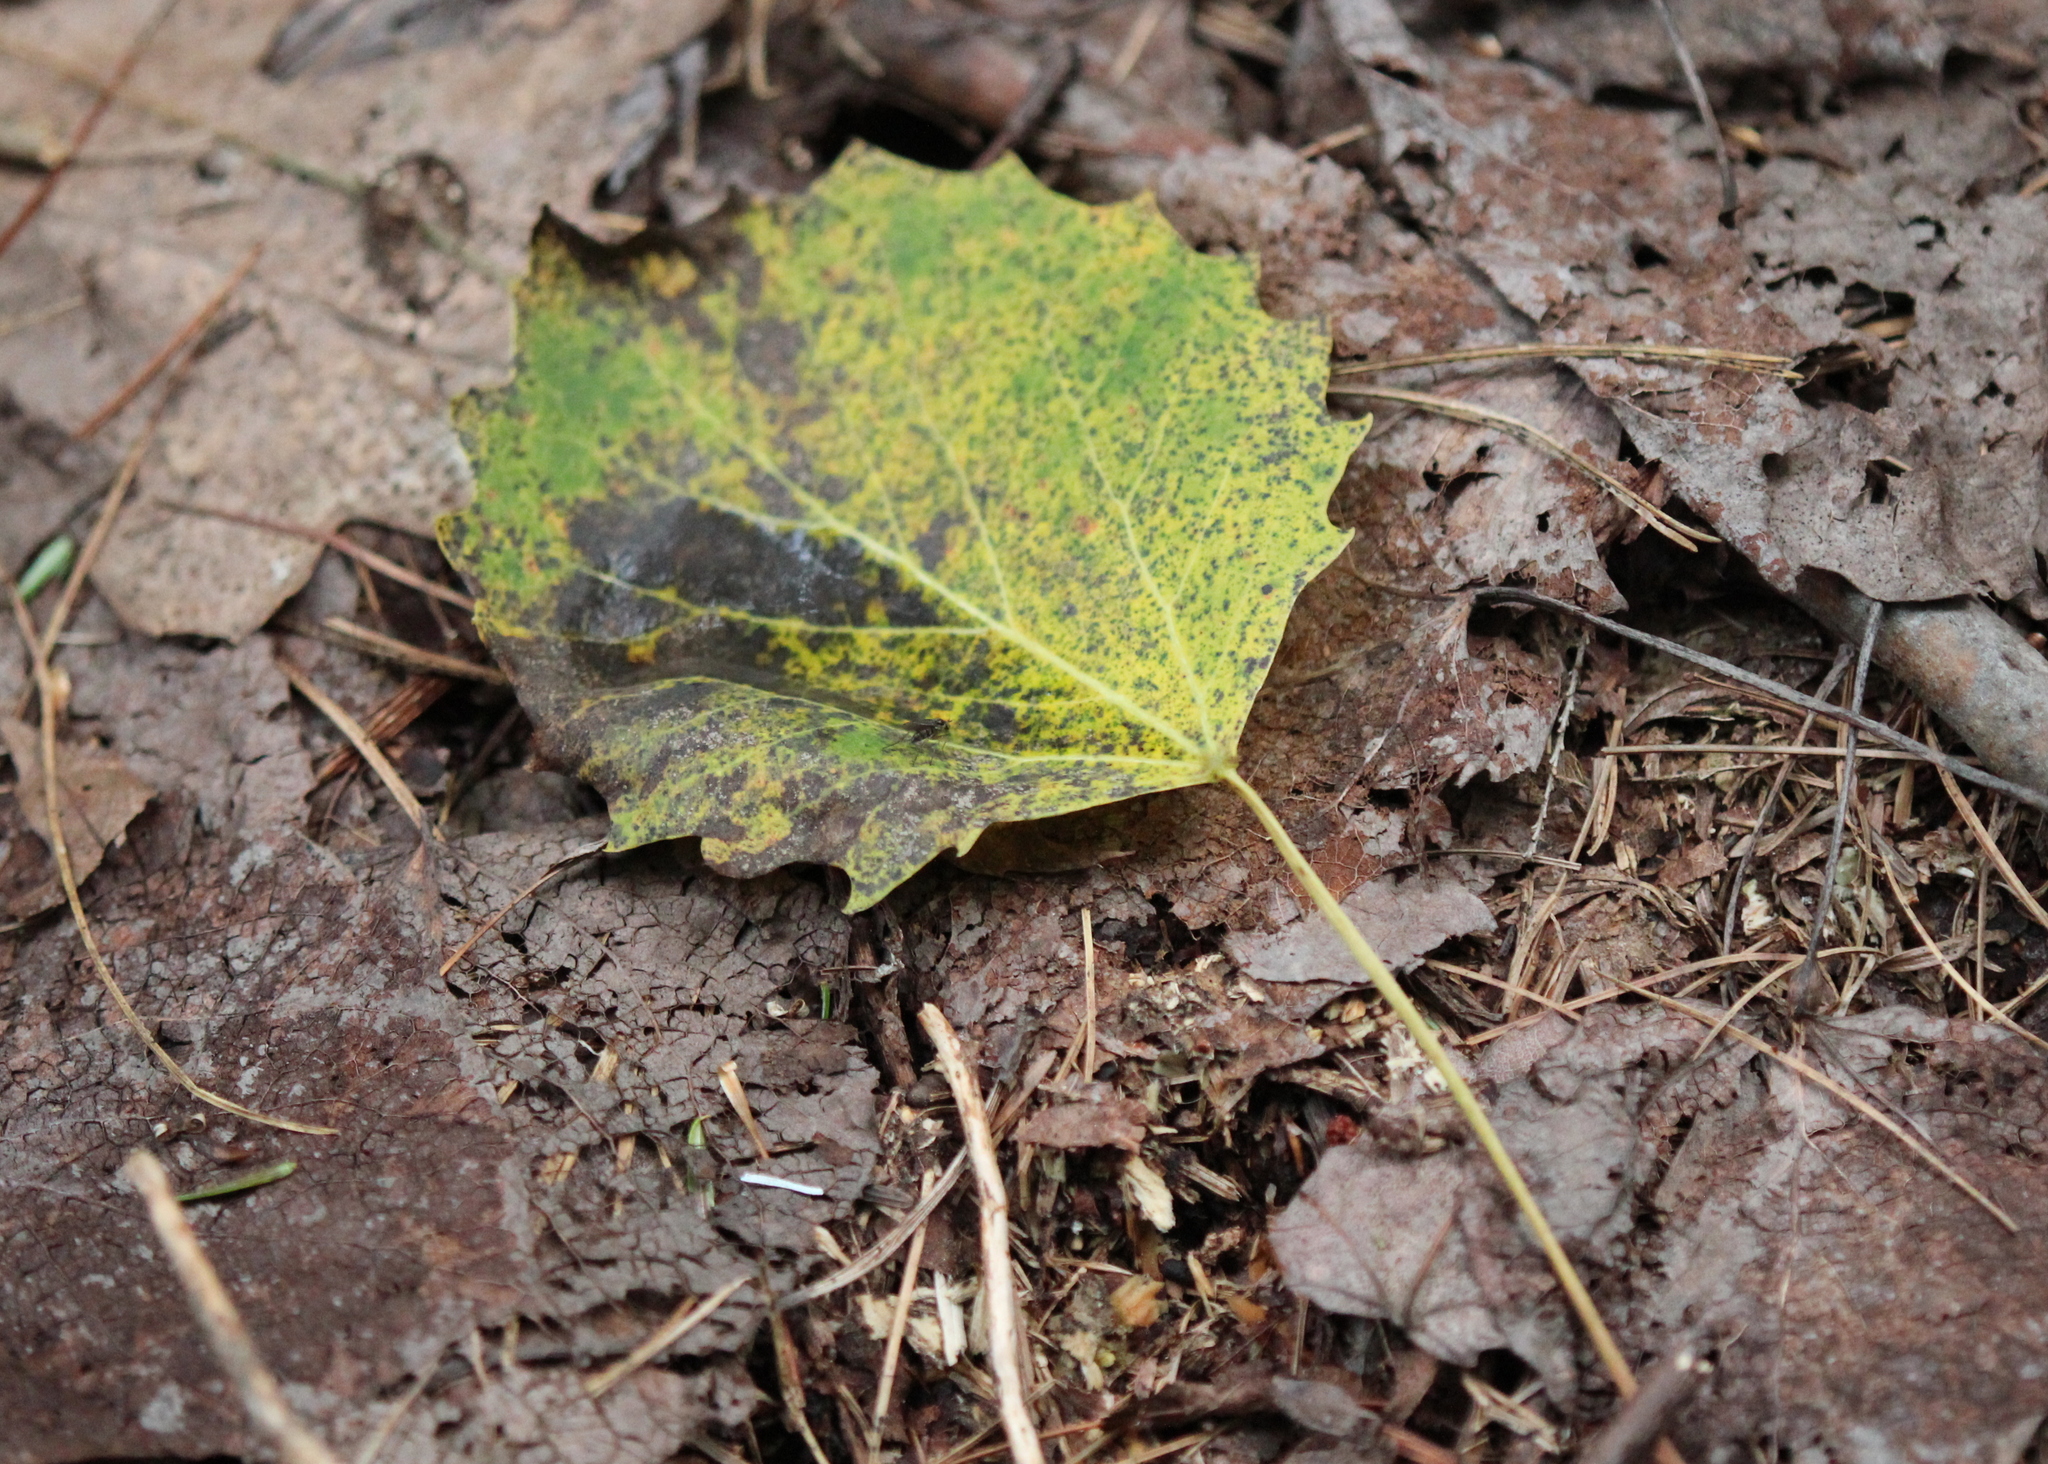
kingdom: Plantae
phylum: Tracheophyta
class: Magnoliopsida
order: Malpighiales
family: Salicaceae
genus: Populus
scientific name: Populus grandidentata
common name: Bigtooth aspen
